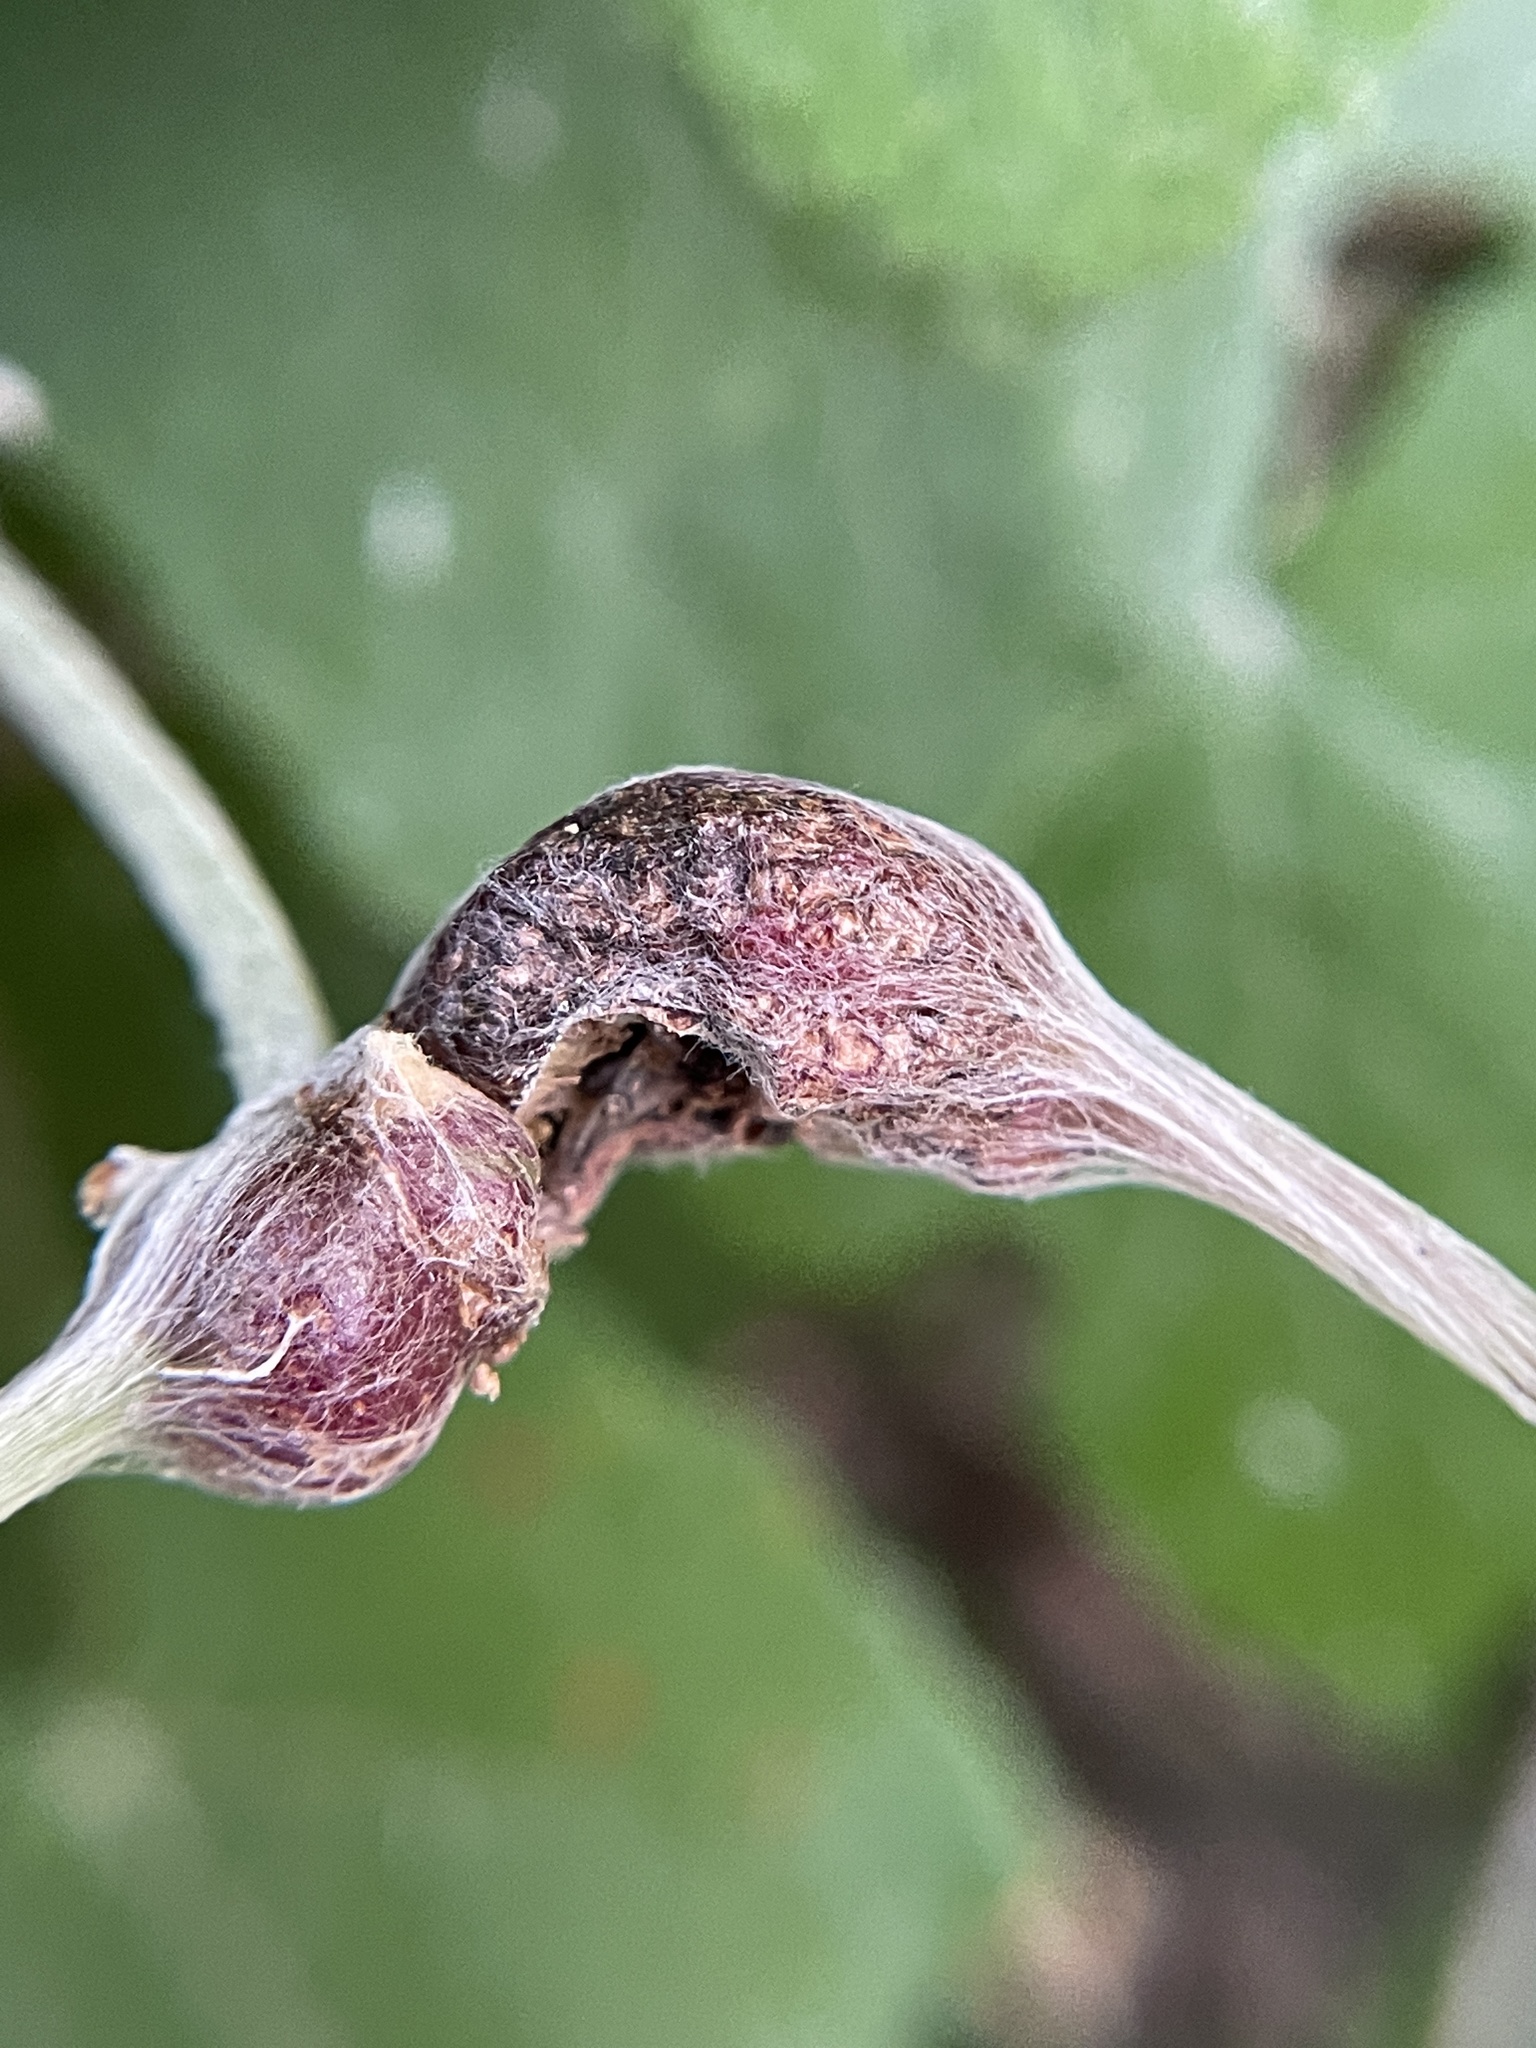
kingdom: Animalia
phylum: Arthropoda
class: Insecta
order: Diptera
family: Cecidomyiidae
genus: Vitisiella
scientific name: Vitisiella brevicauda
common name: Grape tumid gallmaker midge
